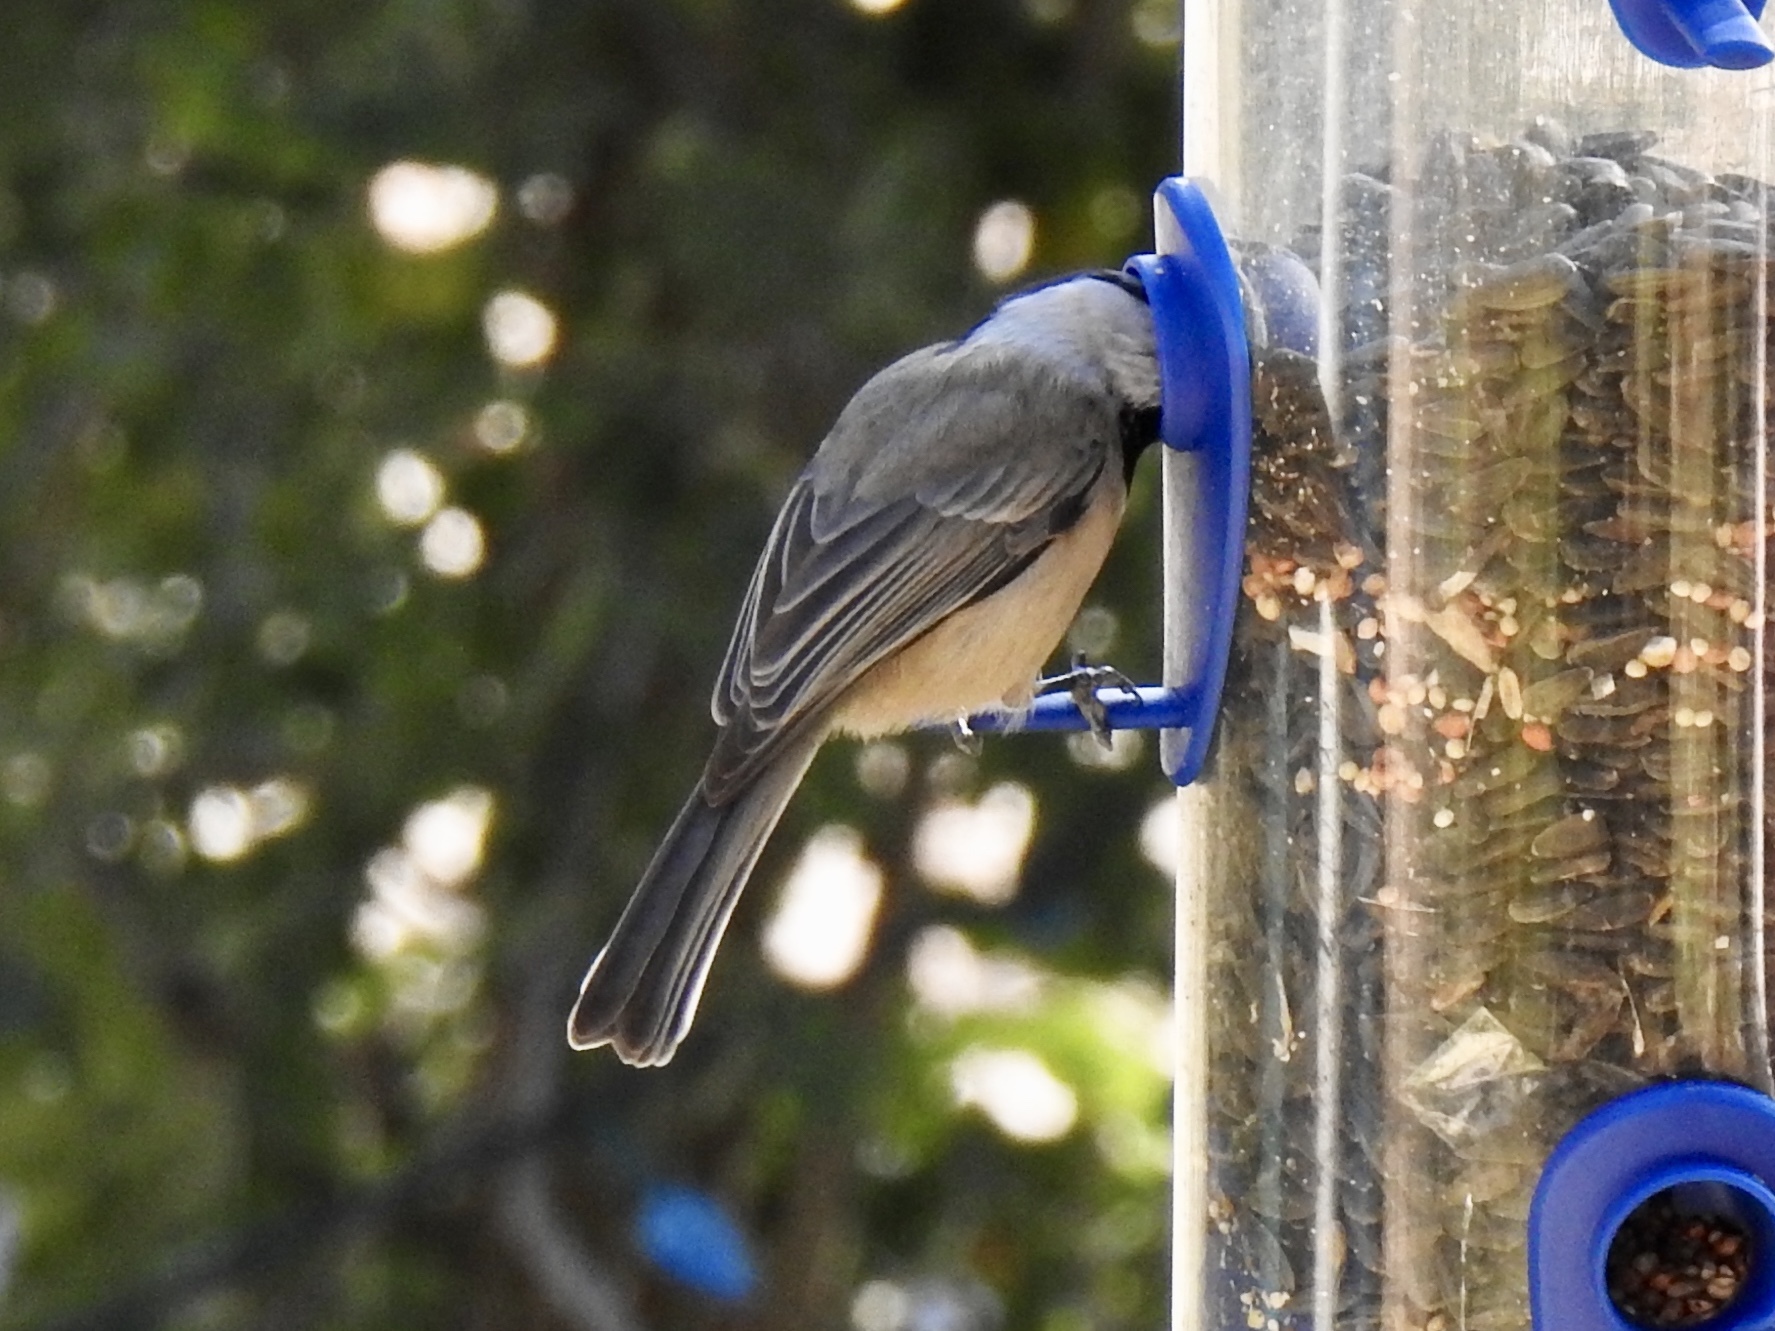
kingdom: Animalia
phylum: Chordata
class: Aves
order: Passeriformes
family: Paridae
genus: Poecile
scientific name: Poecile gambeli
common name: Mountain chickadee
